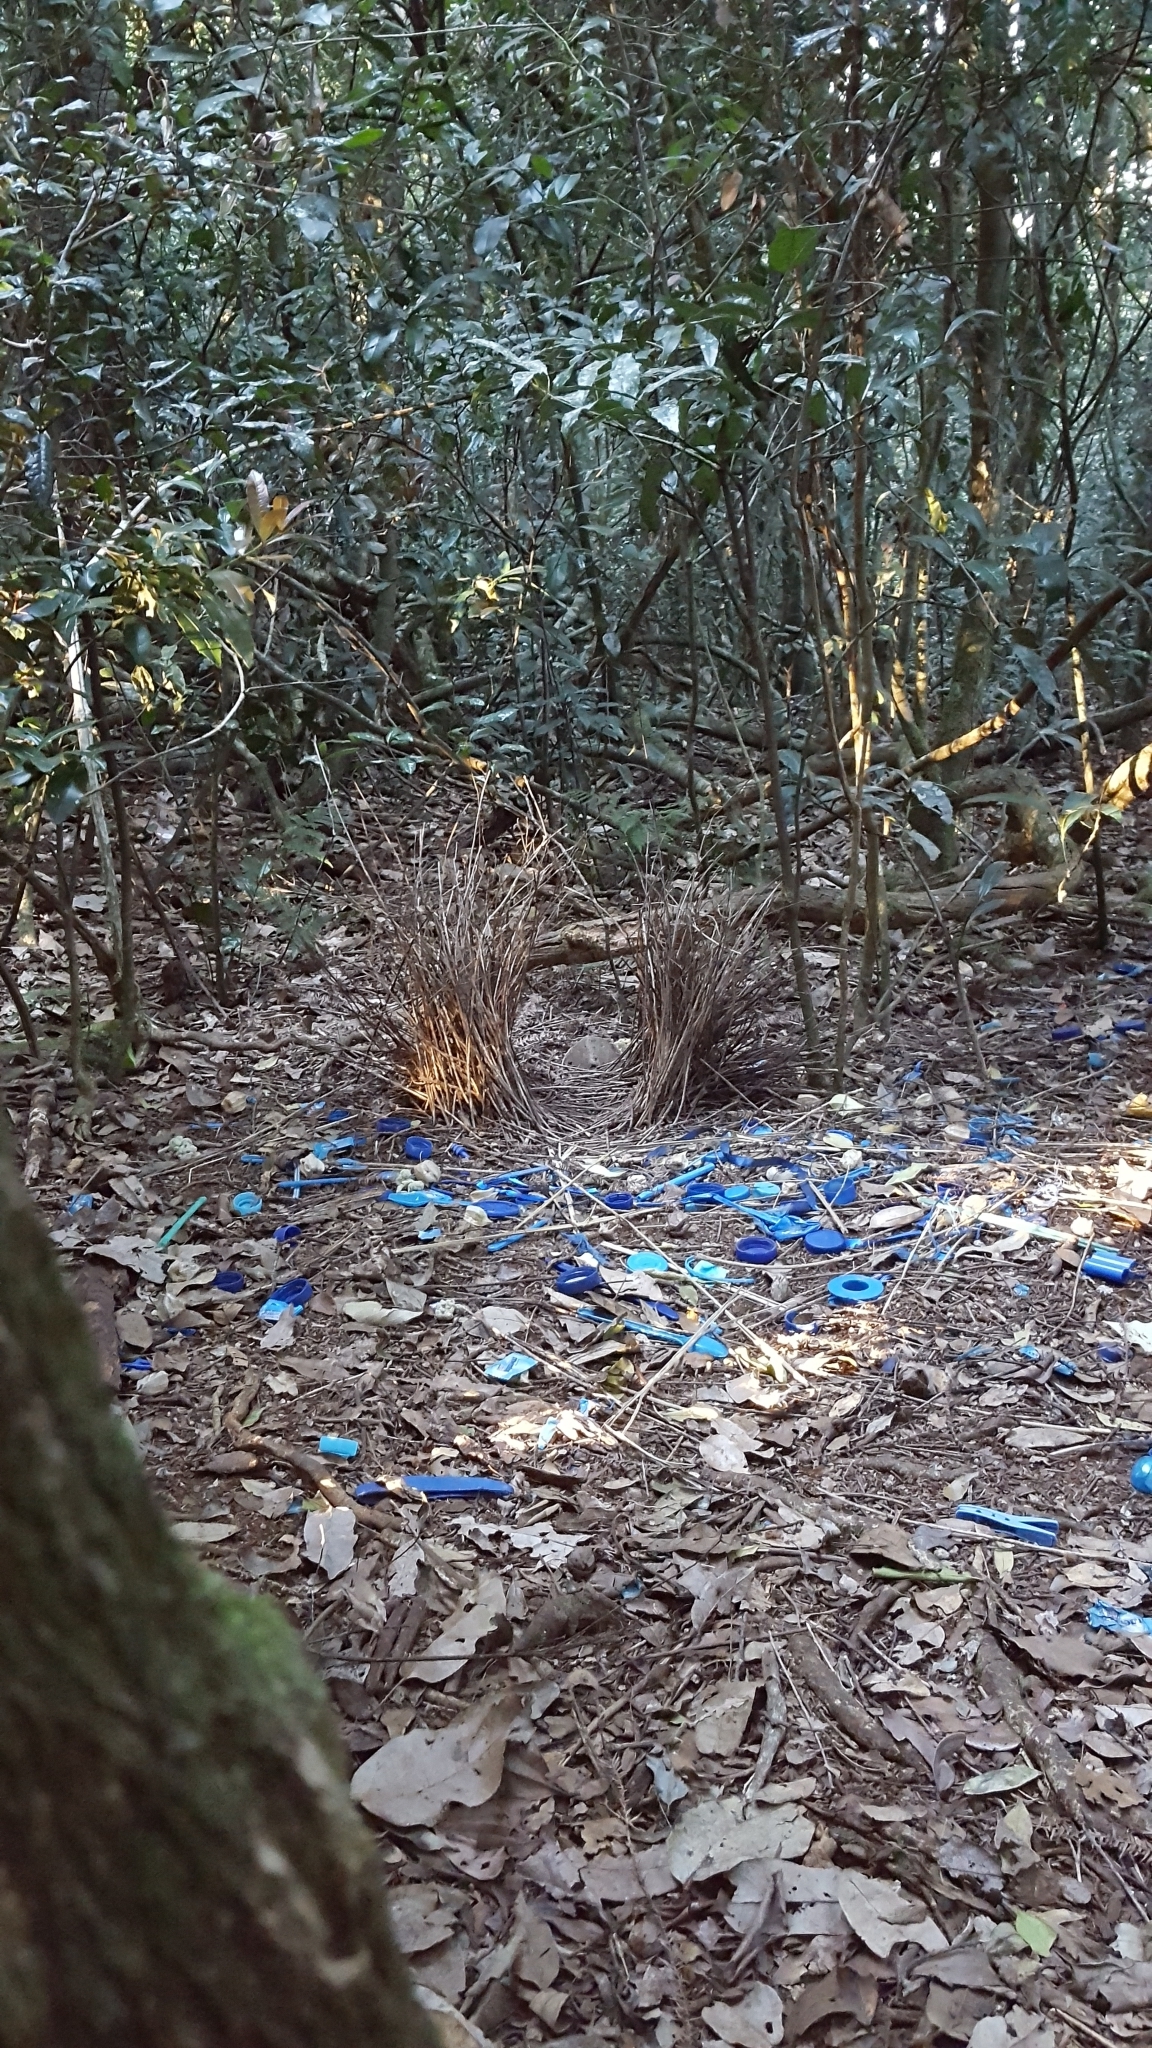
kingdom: Animalia
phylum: Chordata
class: Aves
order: Passeriformes
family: Ptilonorhynchidae
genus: Ptilonorhynchus
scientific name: Ptilonorhynchus violaceus
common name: Satin bowerbird
